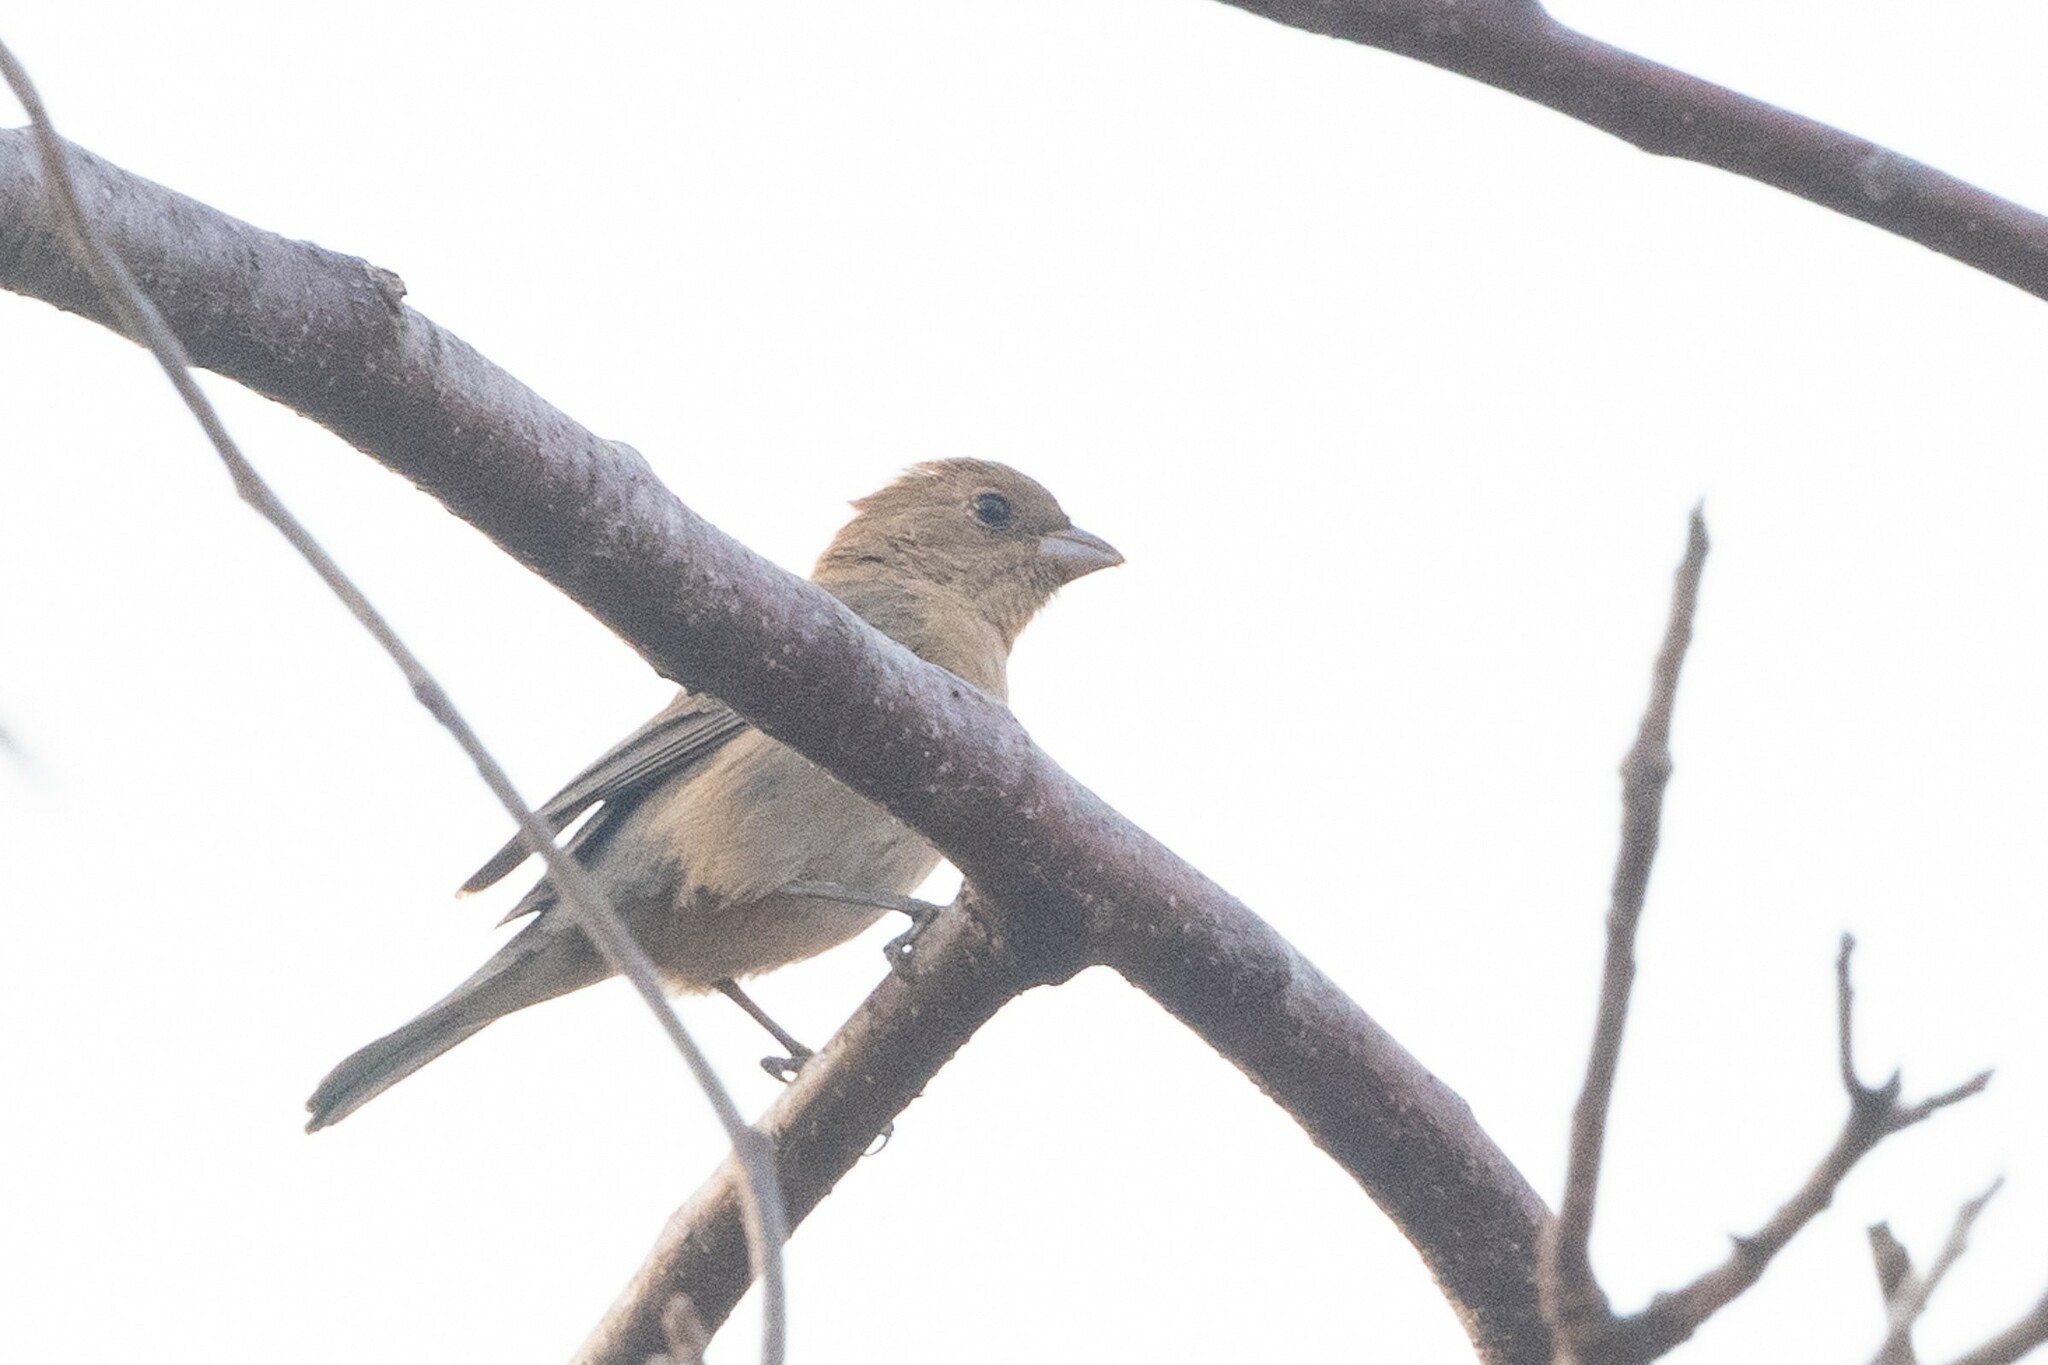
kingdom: Animalia
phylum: Chordata
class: Aves
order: Passeriformes
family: Cardinalidae
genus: Passerina
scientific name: Passerina versicolor
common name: Varied bunting
